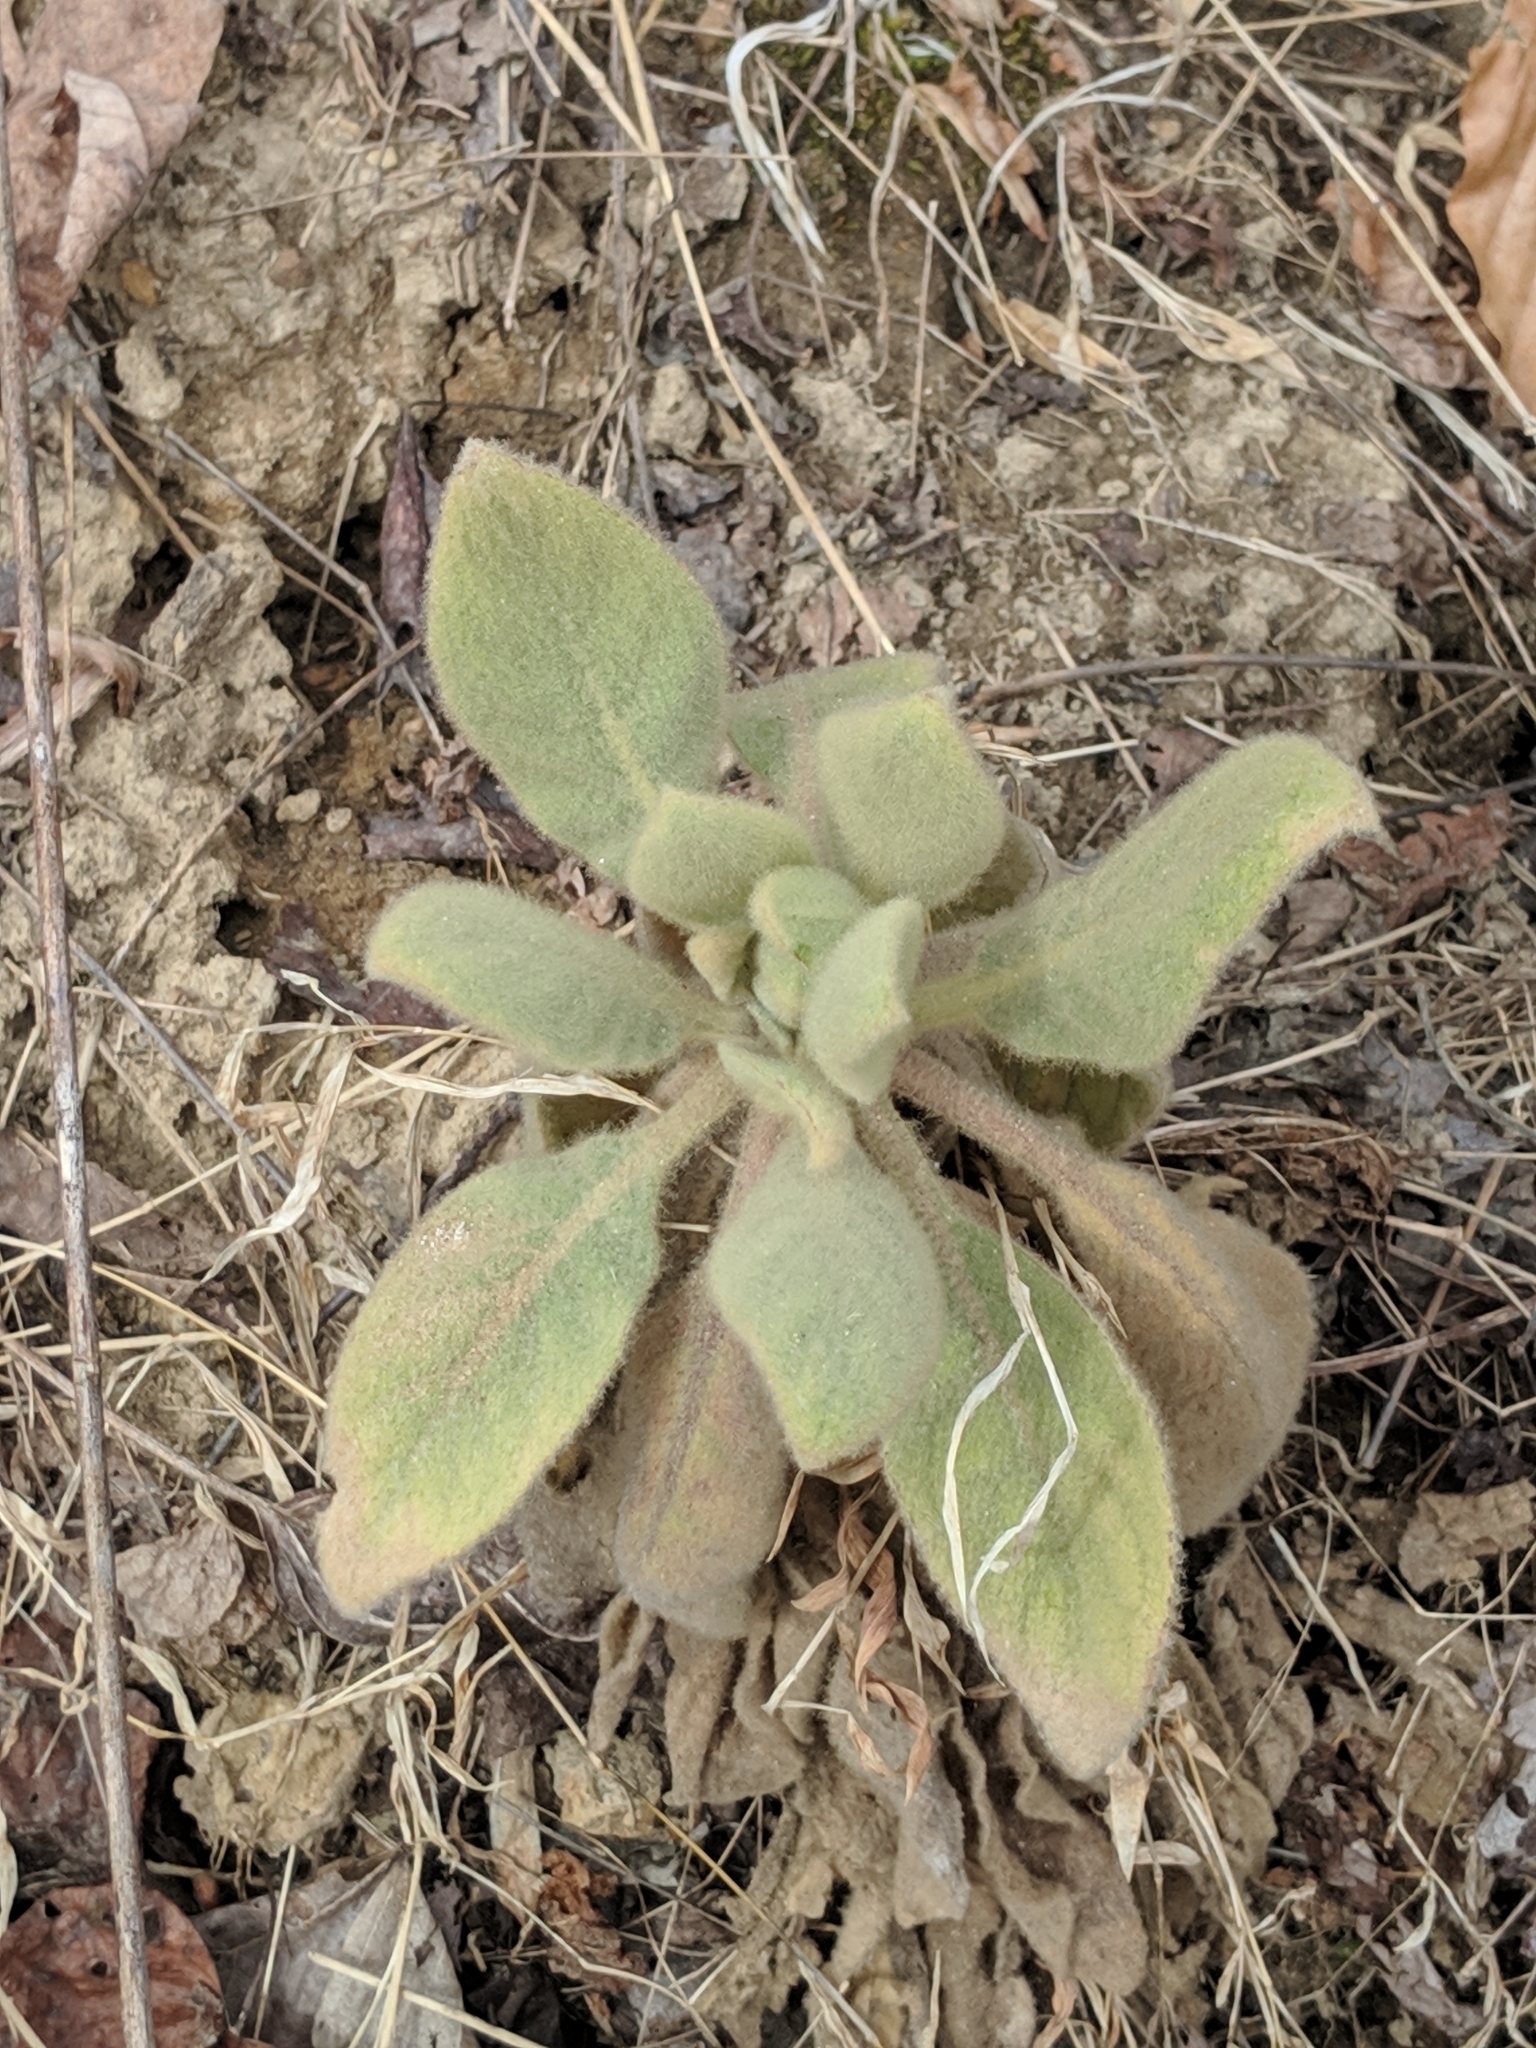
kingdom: Plantae
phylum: Tracheophyta
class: Magnoliopsida
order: Lamiales
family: Scrophulariaceae
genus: Verbascum
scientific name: Verbascum thapsus
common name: Common mullein
